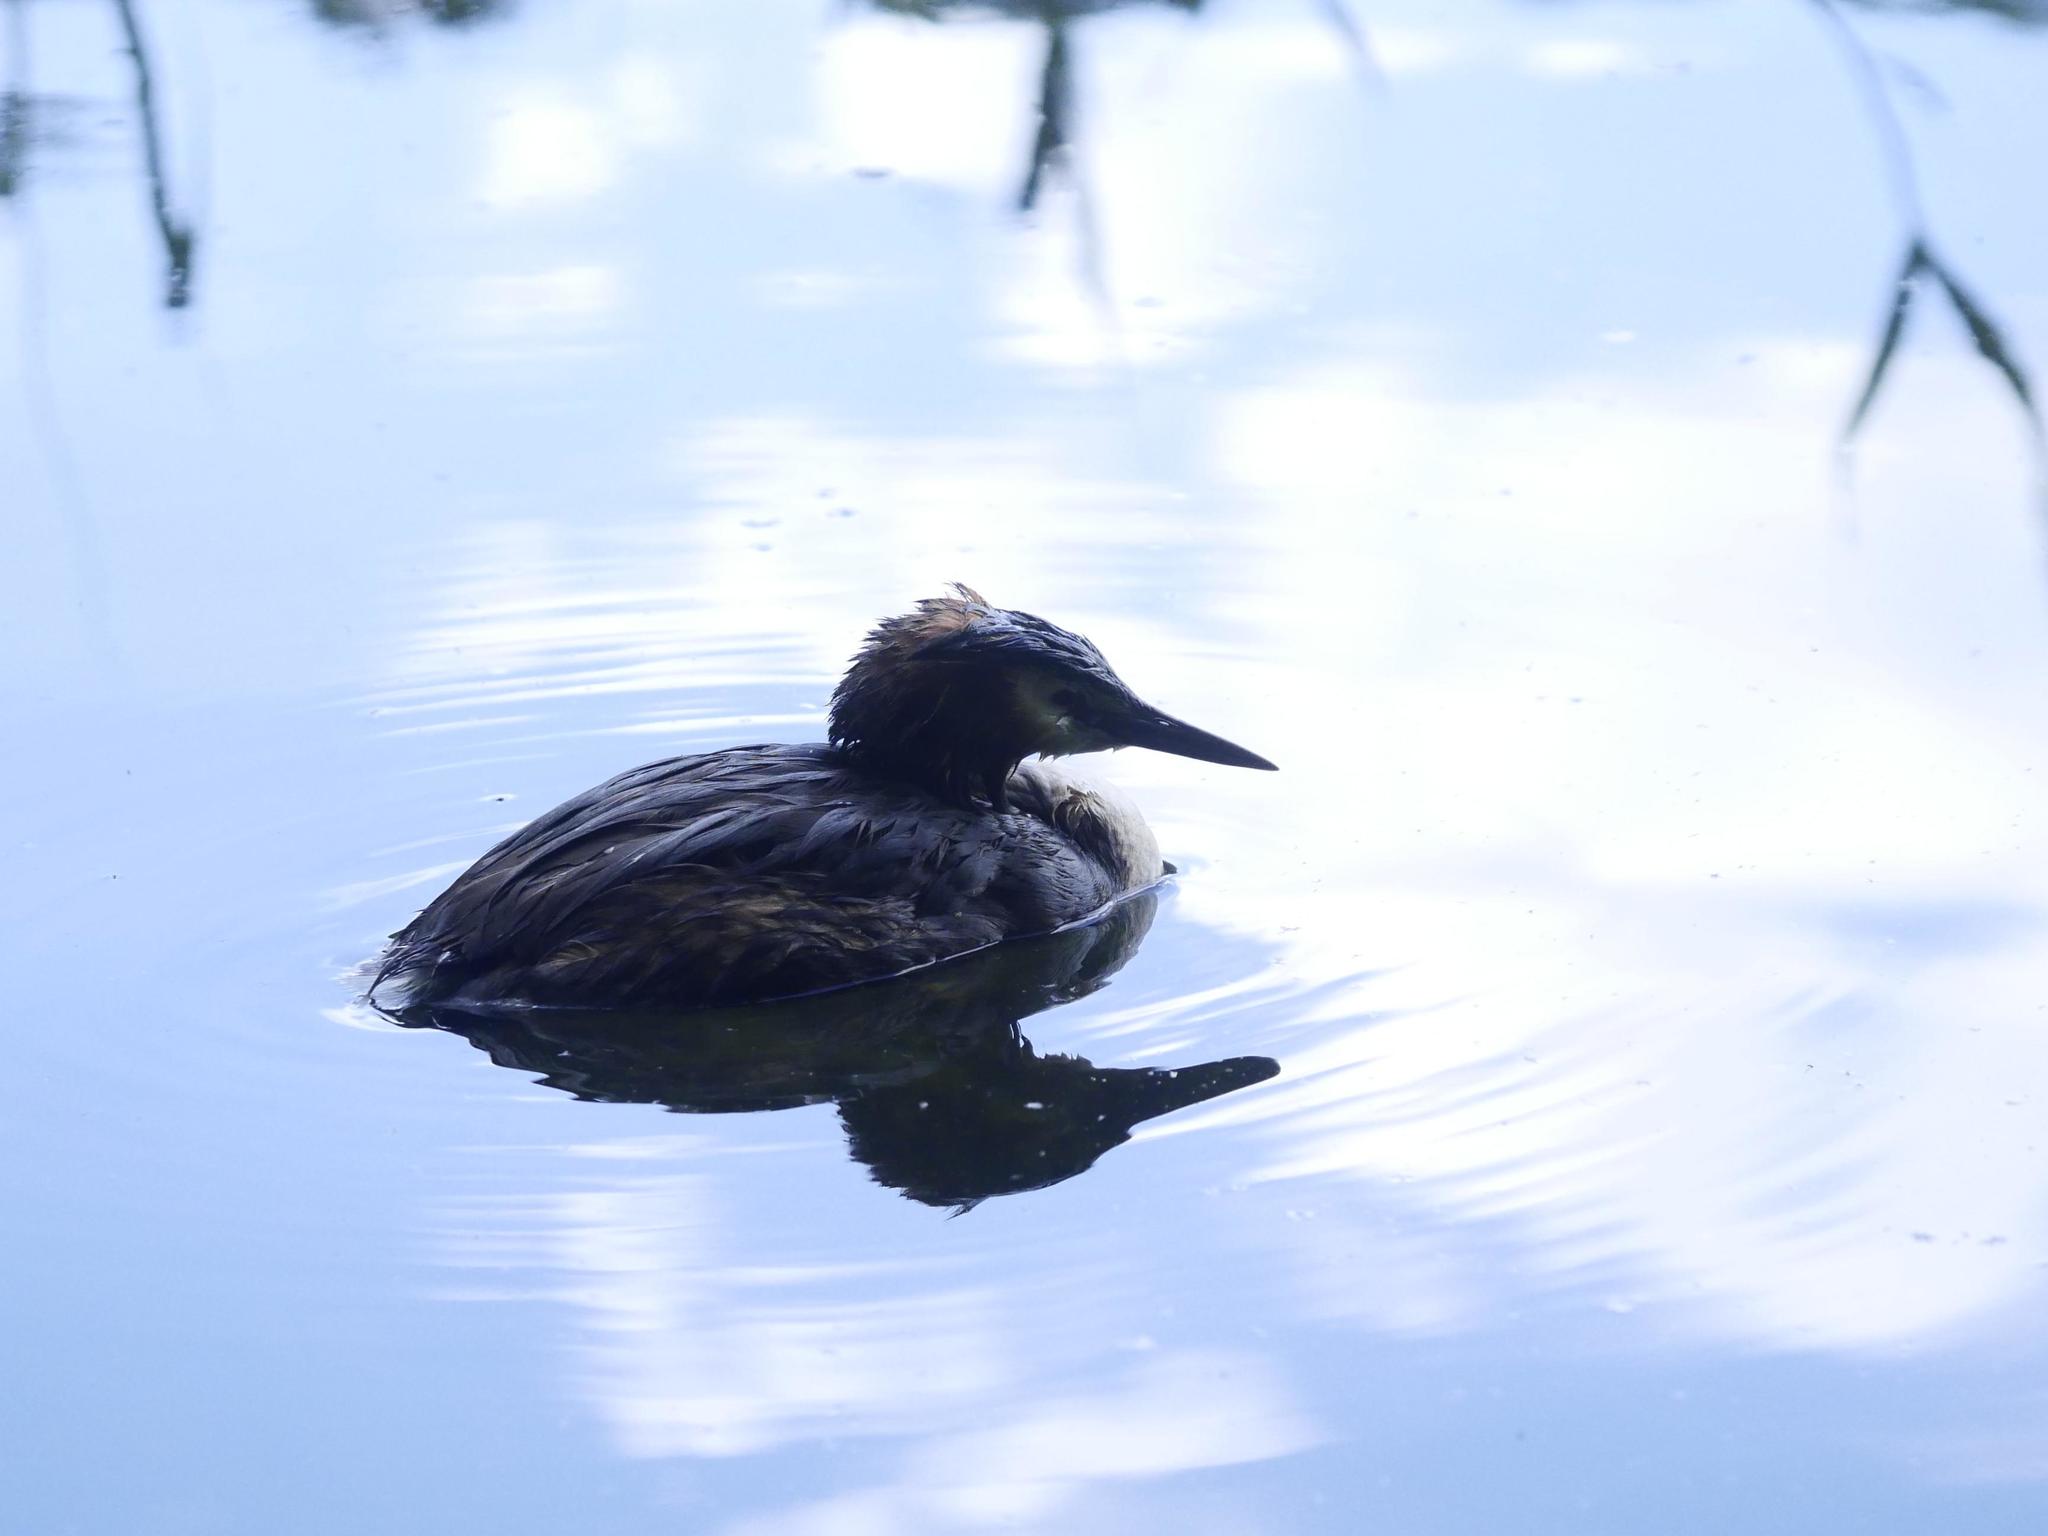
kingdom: Animalia
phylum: Chordata
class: Aves
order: Podicipediformes
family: Podicipedidae
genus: Podiceps
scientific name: Podiceps cristatus
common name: Great crested grebe
